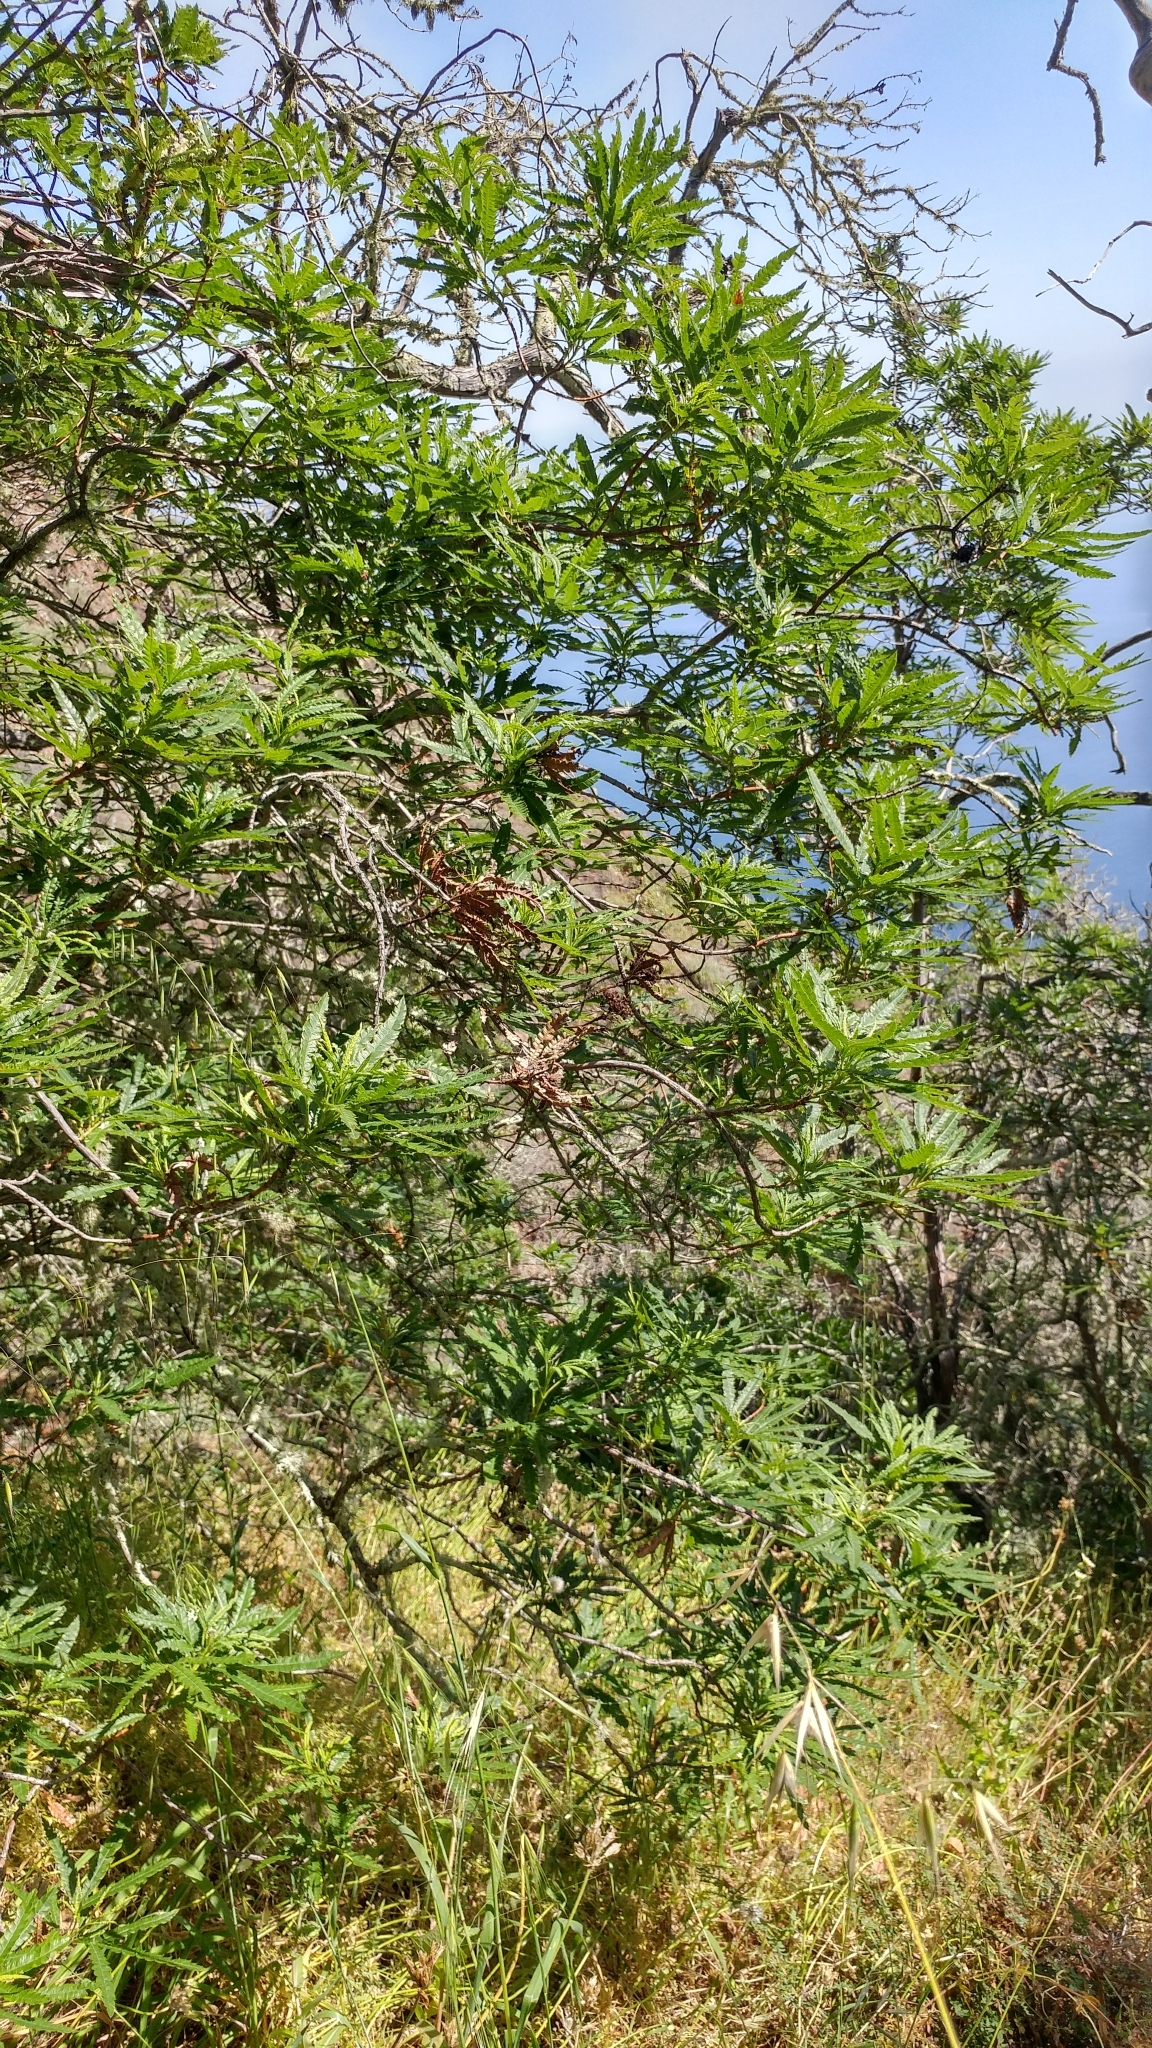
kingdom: Plantae
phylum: Tracheophyta
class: Magnoliopsida
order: Rosales
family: Rosaceae
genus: Lyonothamnus
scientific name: Lyonothamnus floribundus
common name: Catalina ironwood
